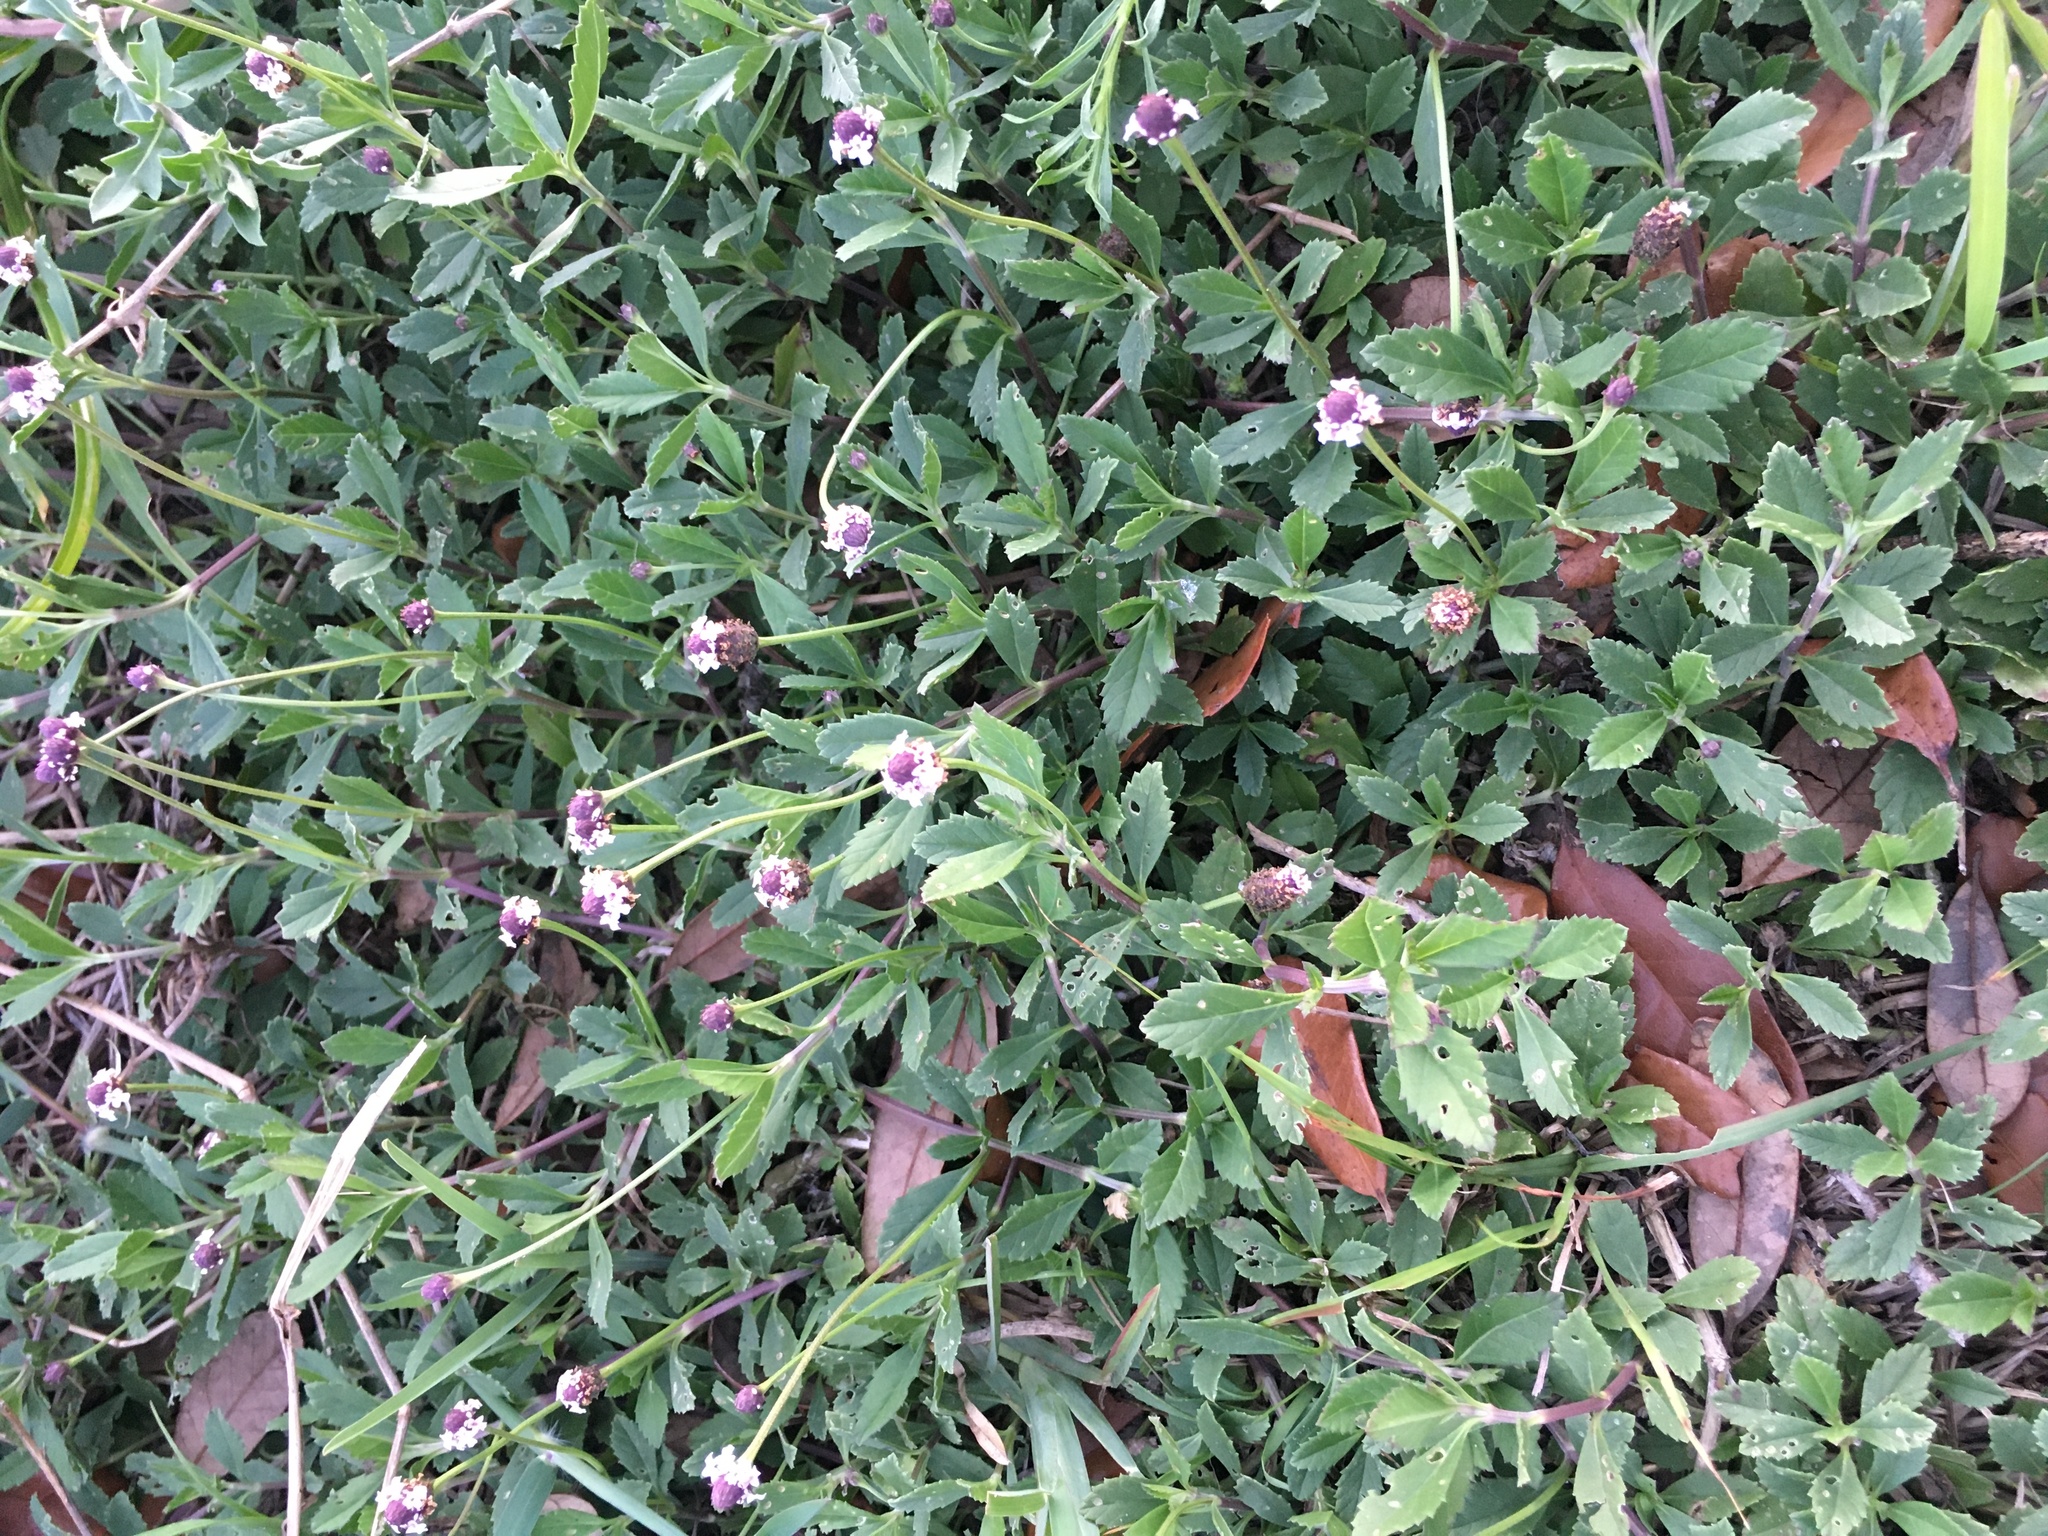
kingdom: Plantae
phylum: Tracheophyta
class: Magnoliopsida
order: Lamiales
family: Verbenaceae
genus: Phyla
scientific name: Phyla nodiflora
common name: Frogfruit
